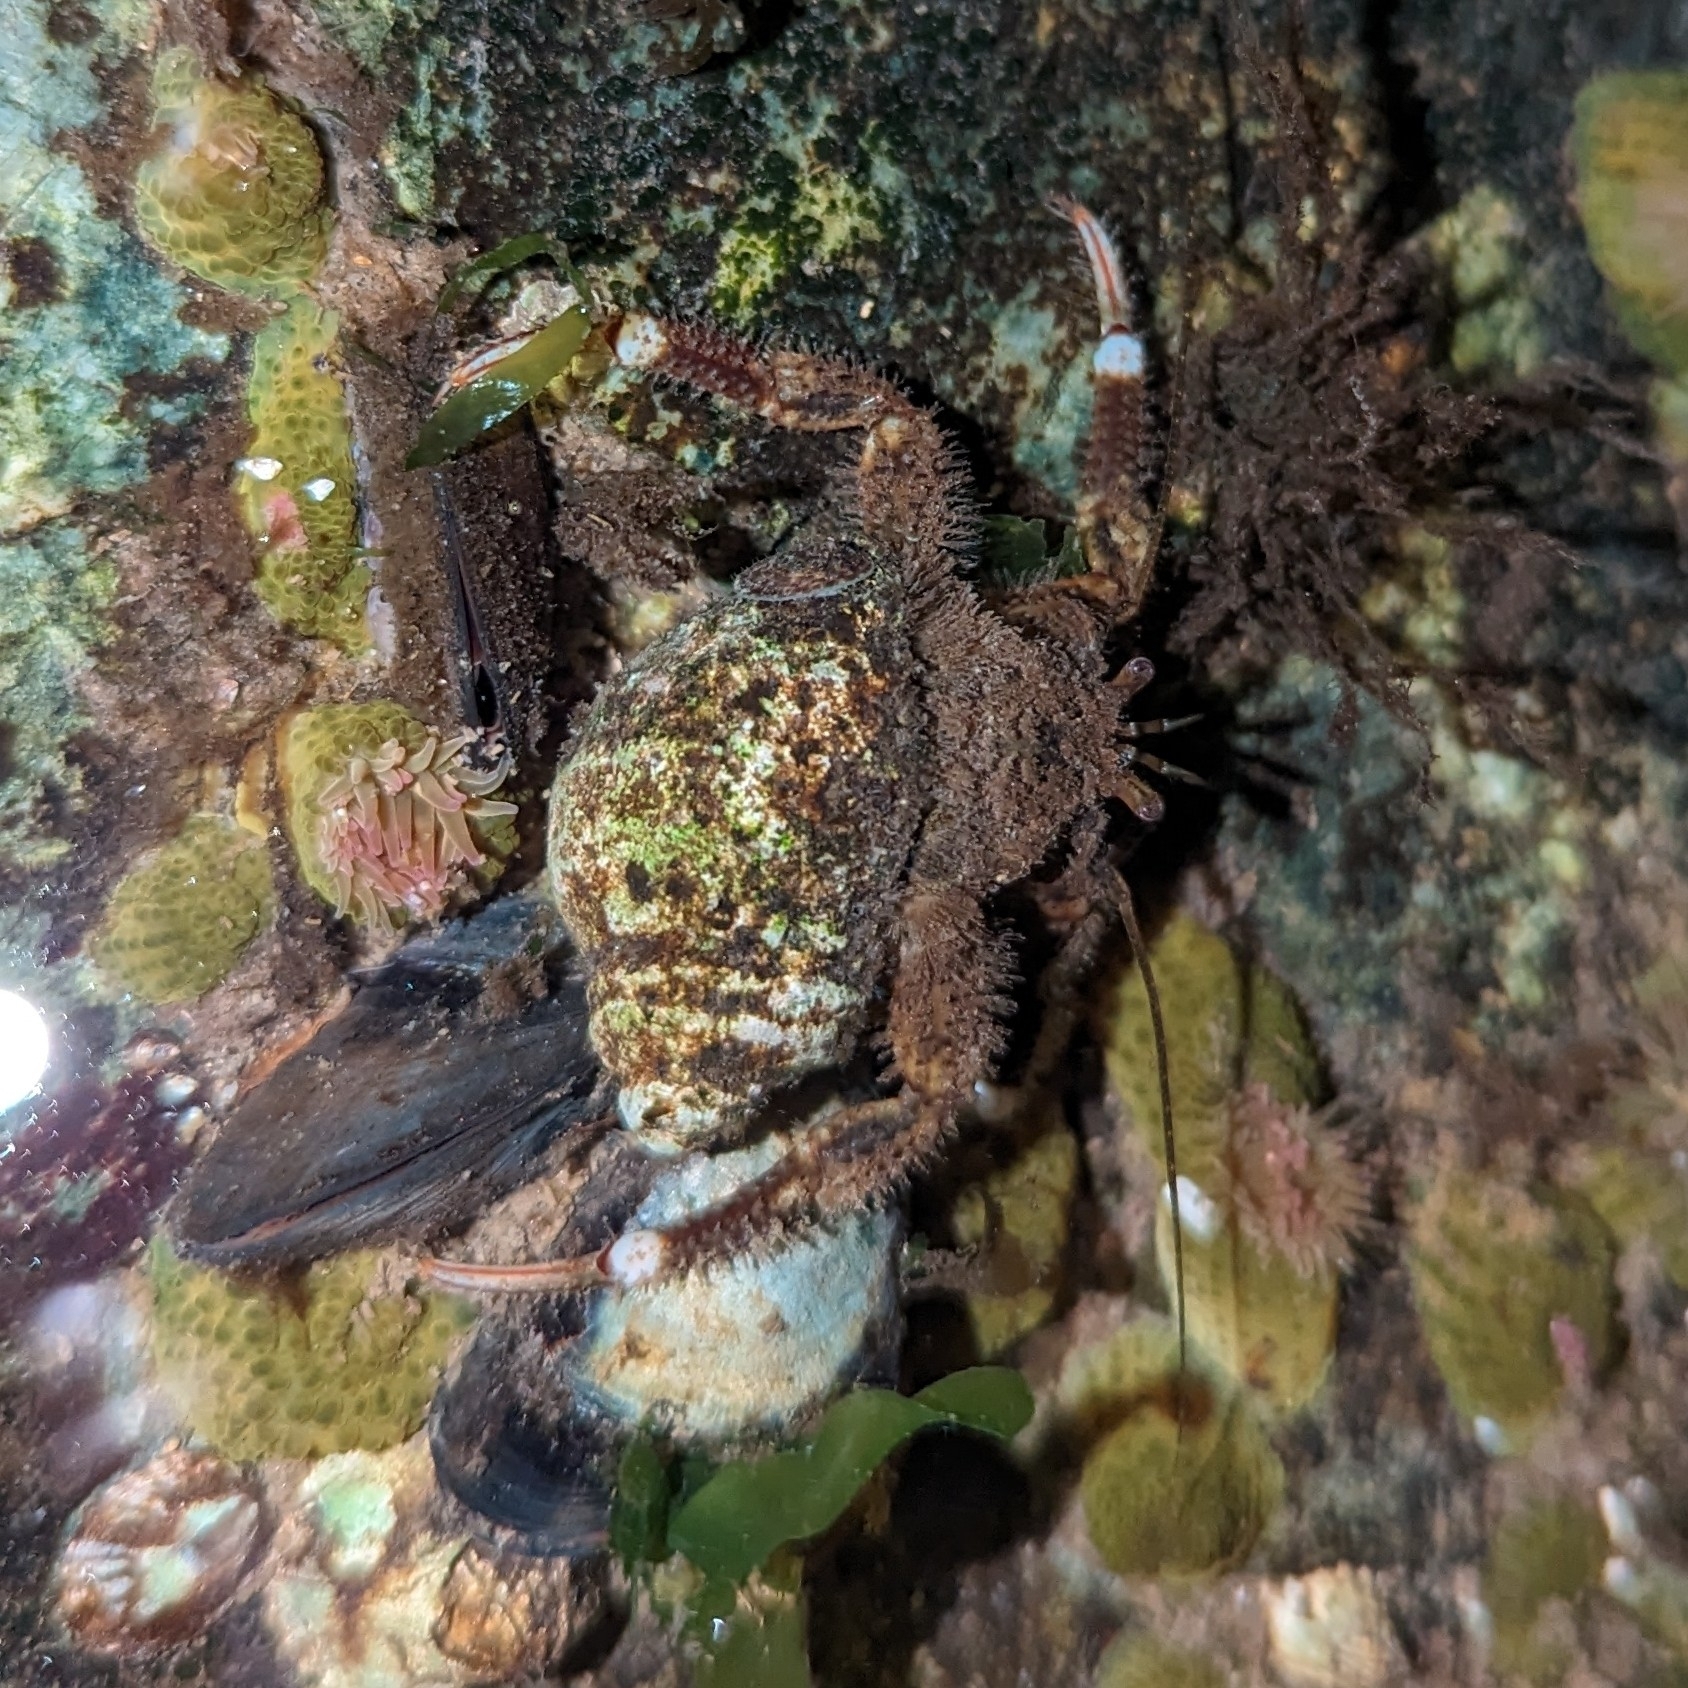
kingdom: Animalia
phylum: Arthropoda
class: Malacostraca
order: Decapoda
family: Paguridae
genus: Pagurus
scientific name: Pagurus hirsutiusculus
